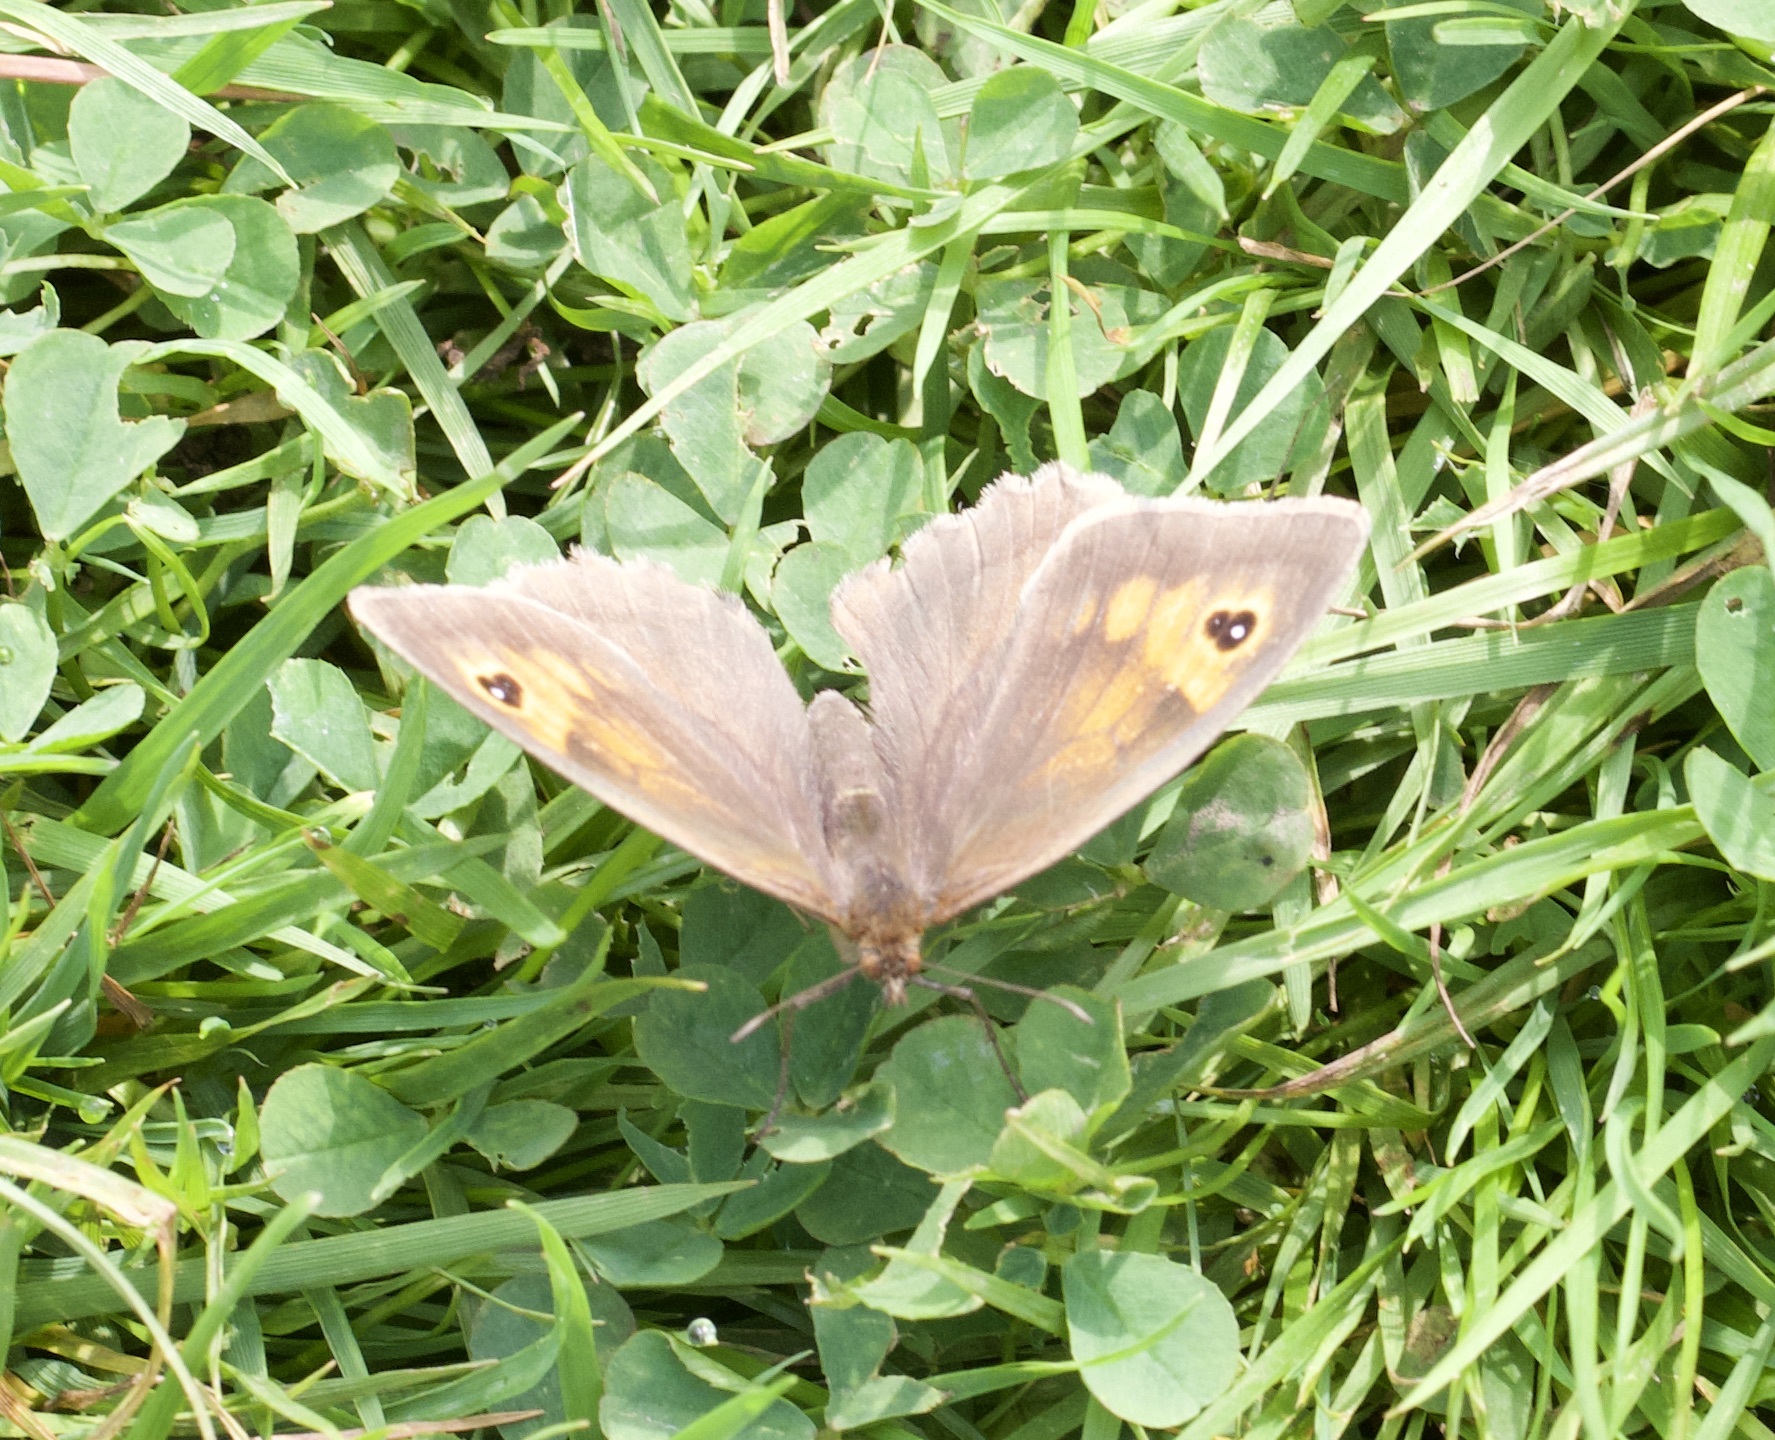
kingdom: Animalia
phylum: Arthropoda
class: Insecta
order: Lepidoptera
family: Nymphalidae
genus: Maniola
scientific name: Maniola jurtina
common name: Meadow brown
